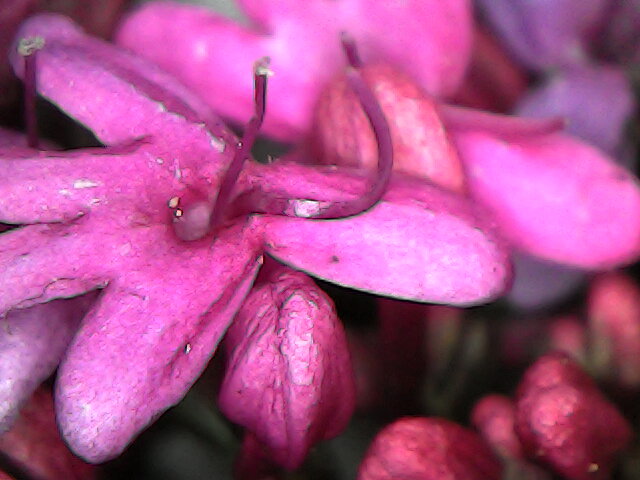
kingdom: Plantae
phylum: Tracheophyta
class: Magnoliopsida
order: Dipsacales
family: Caprifoliaceae
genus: Centranthus
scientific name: Centranthus ruber
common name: Red valerian
